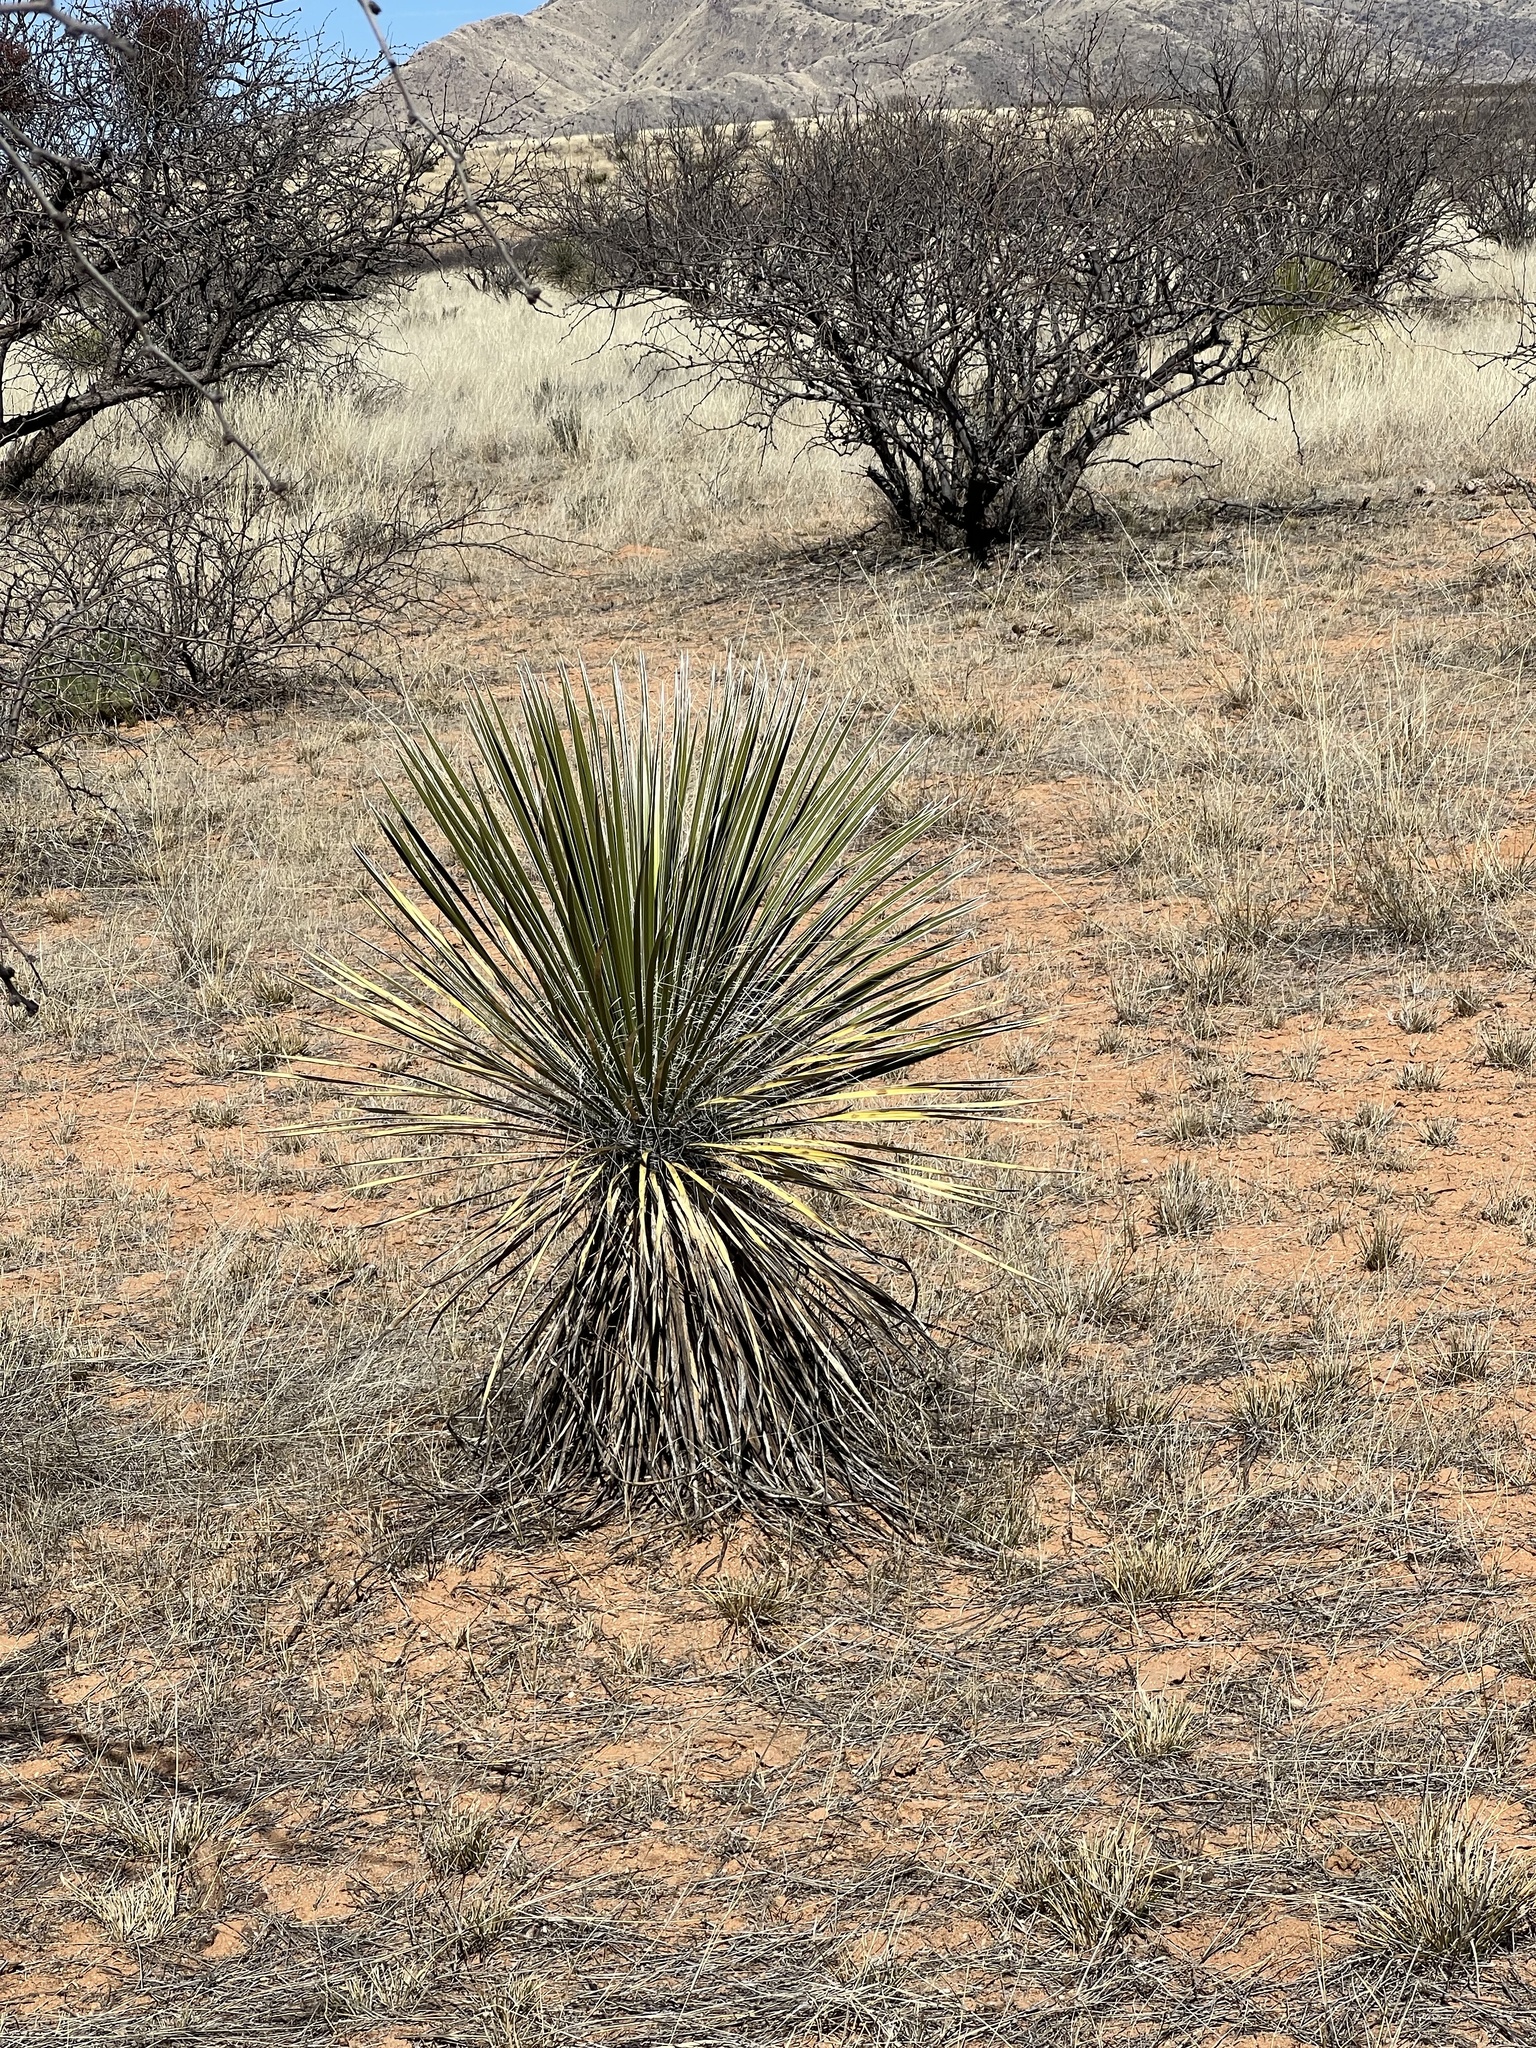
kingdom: Plantae
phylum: Tracheophyta
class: Liliopsida
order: Asparagales
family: Asparagaceae
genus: Yucca
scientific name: Yucca elata
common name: Palmella
